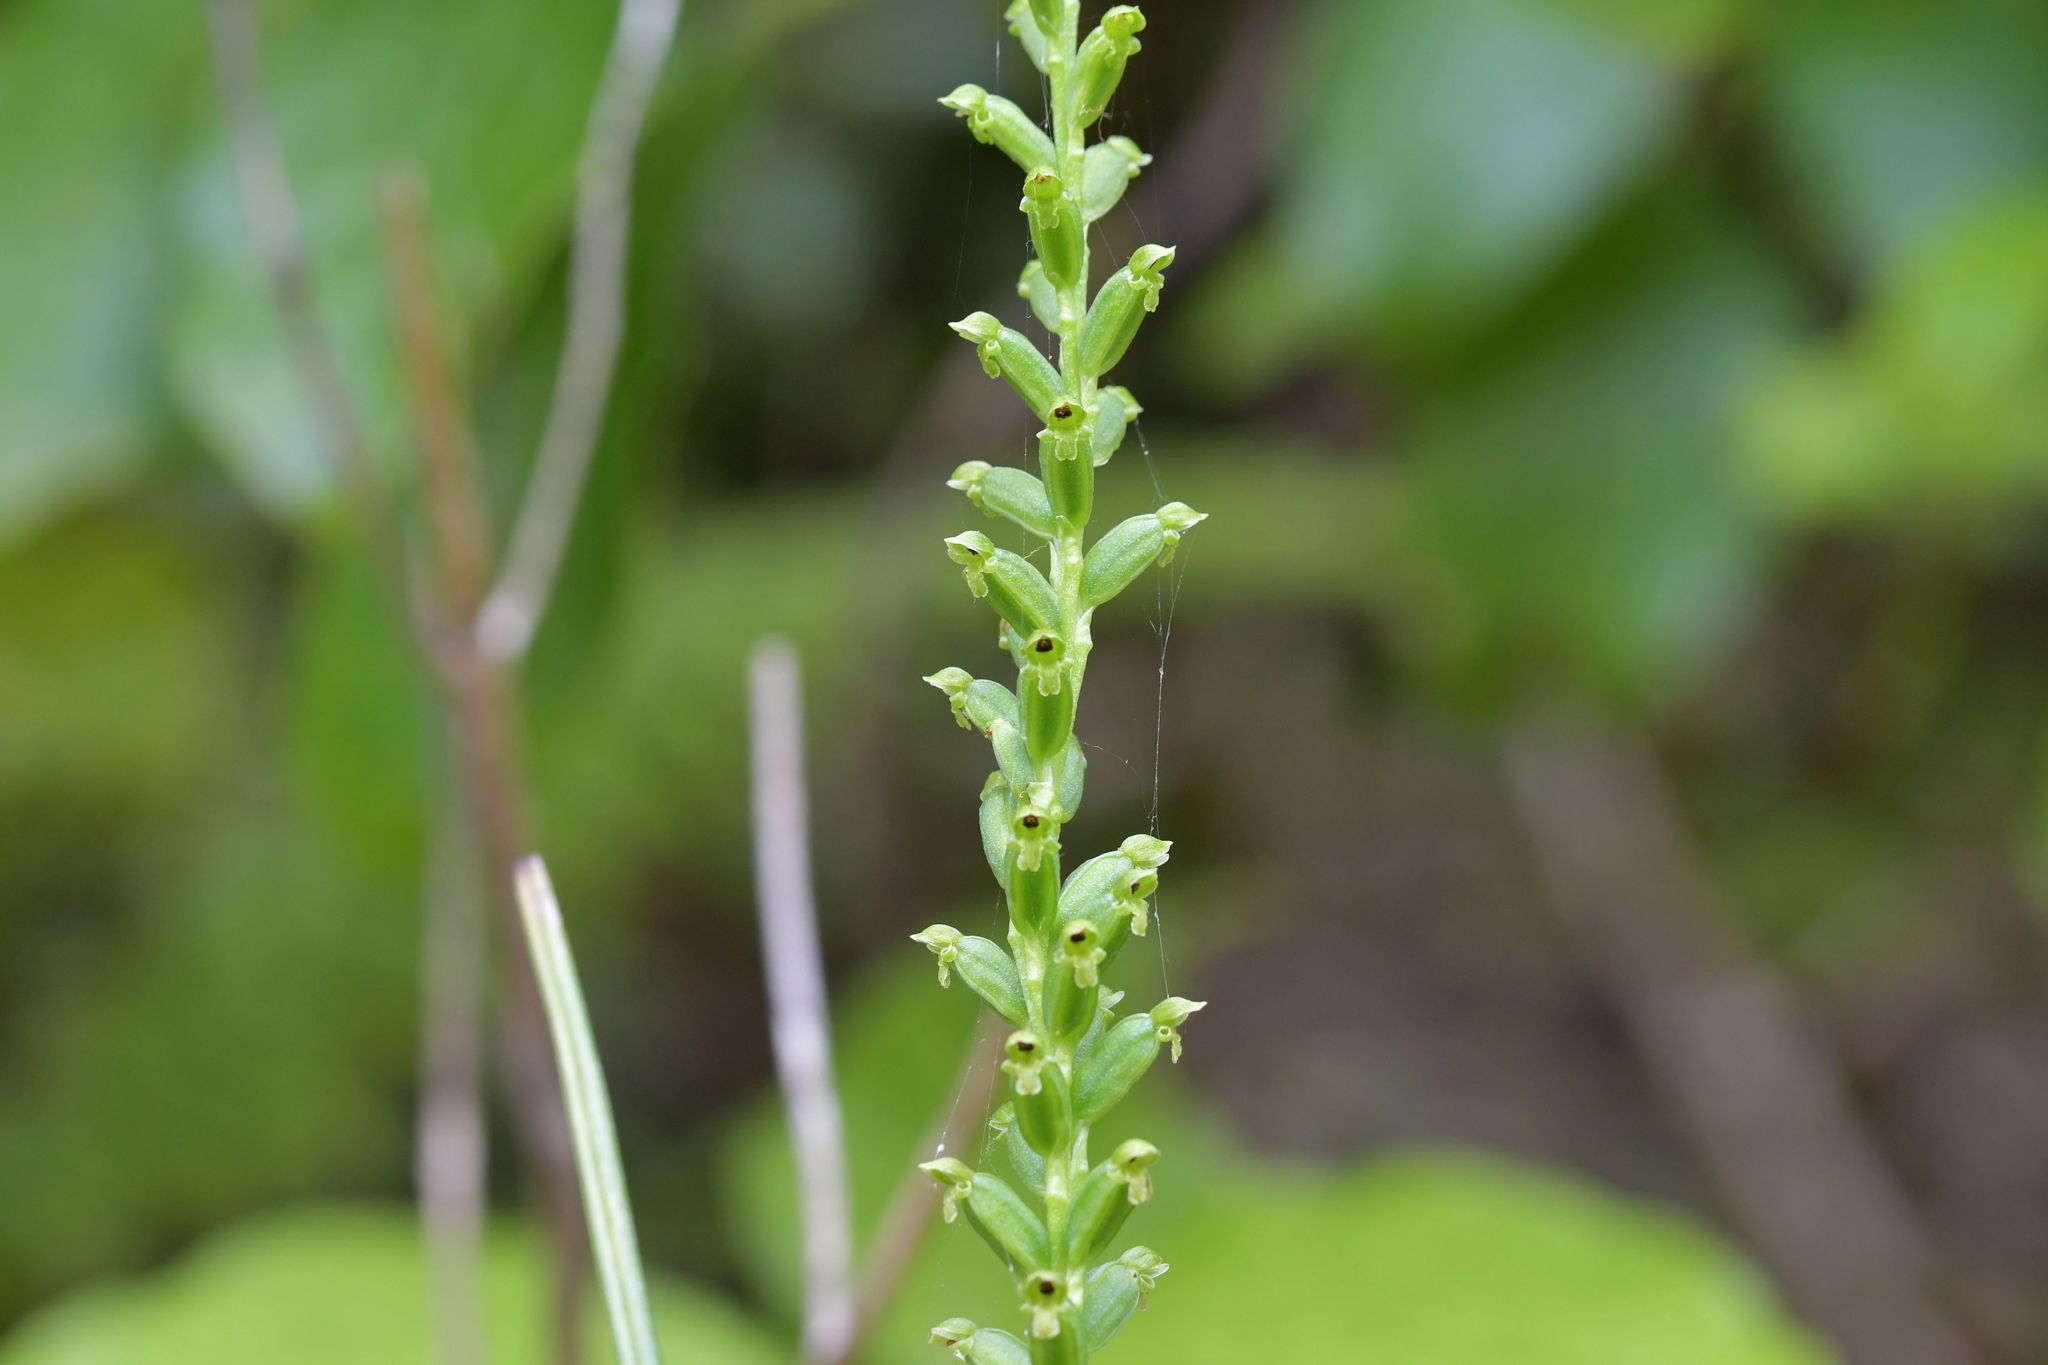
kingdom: Plantae
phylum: Tracheophyta
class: Liliopsida
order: Asparagales
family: Orchidaceae
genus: Microtis
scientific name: Microtis unifolia
